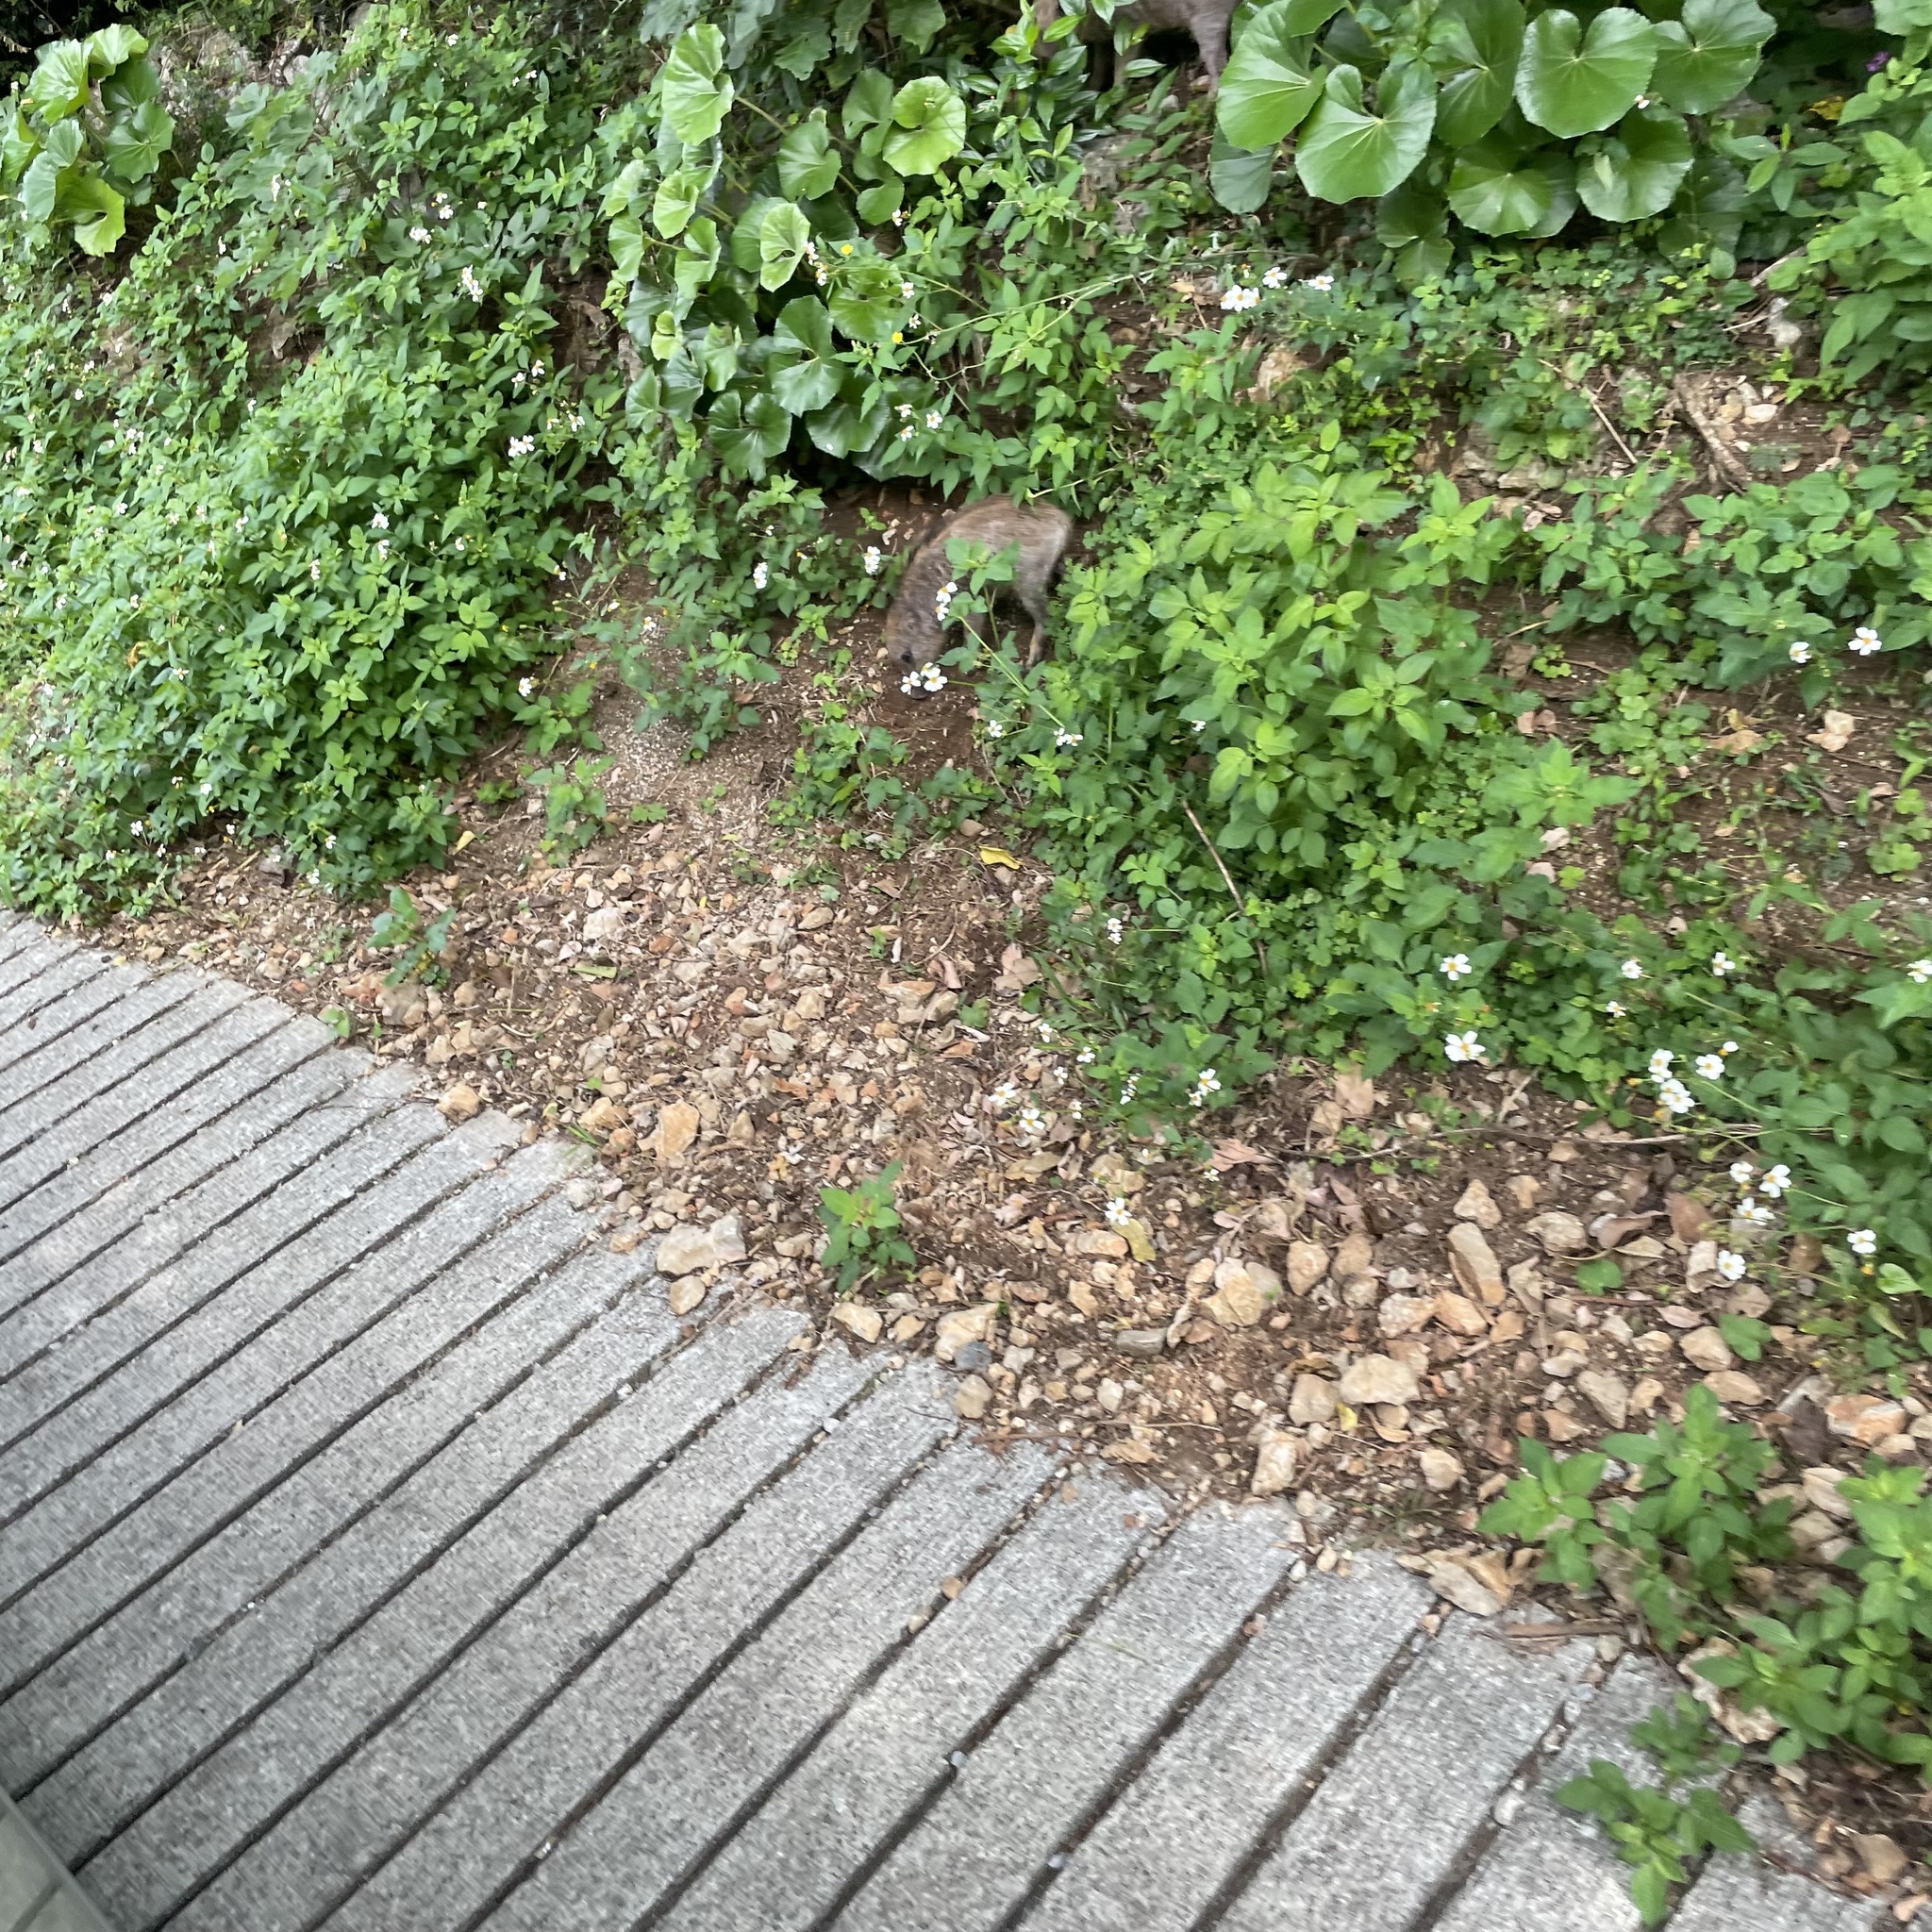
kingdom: Animalia
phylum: Chordata
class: Mammalia
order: Artiodactyla
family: Suidae
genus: Sus
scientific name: Sus scrofa
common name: Wild boar
